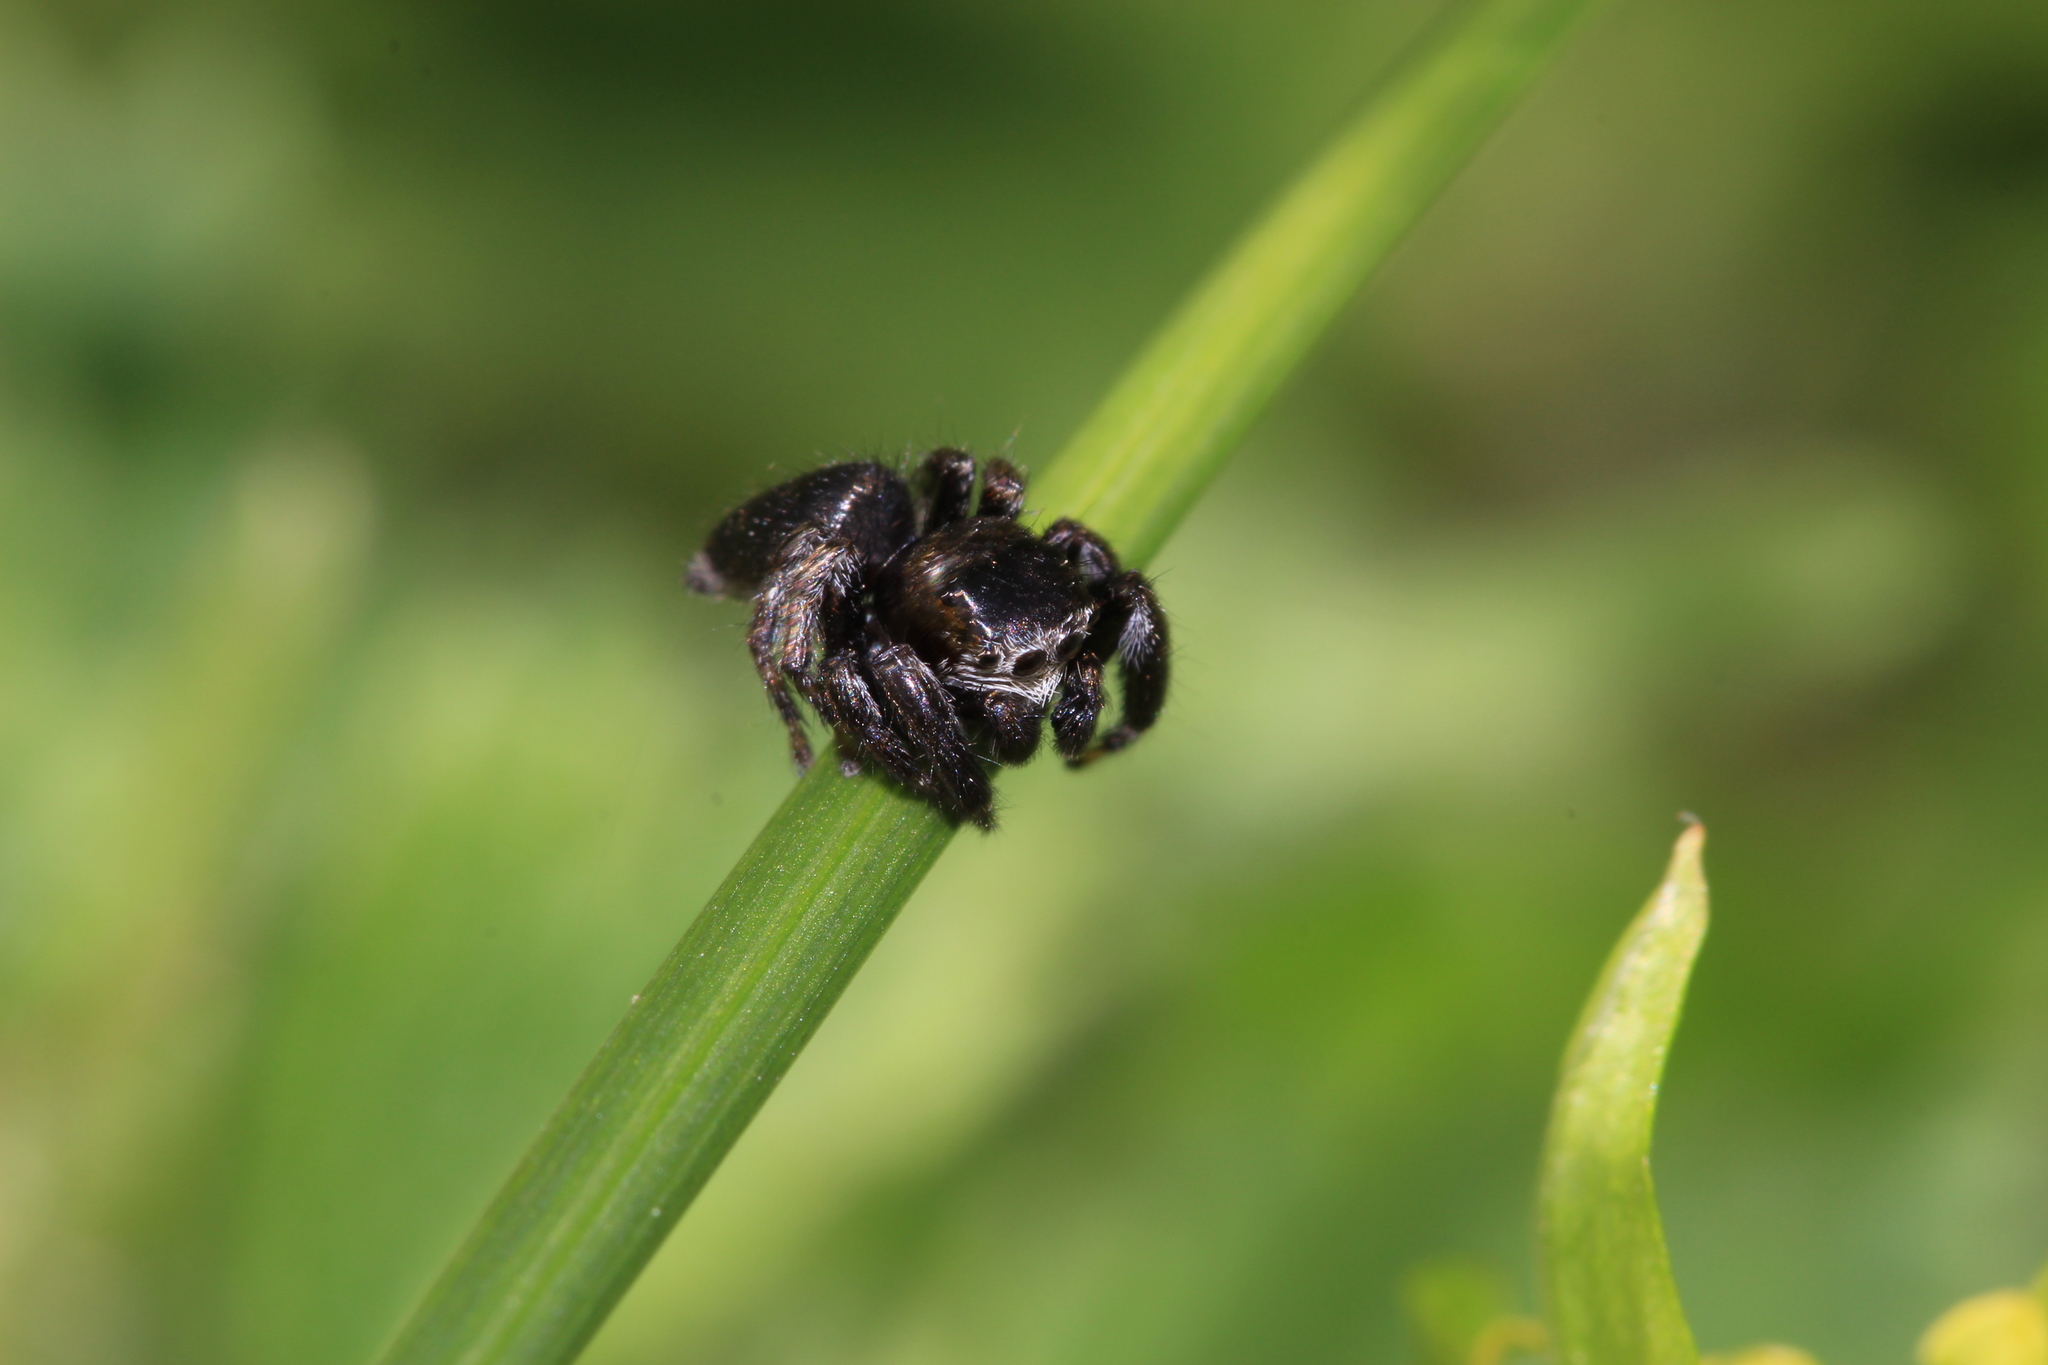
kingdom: Animalia
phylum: Arthropoda
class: Arachnida
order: Araneae
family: Salticidae
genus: Evarcha
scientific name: Evarcha arcuata
